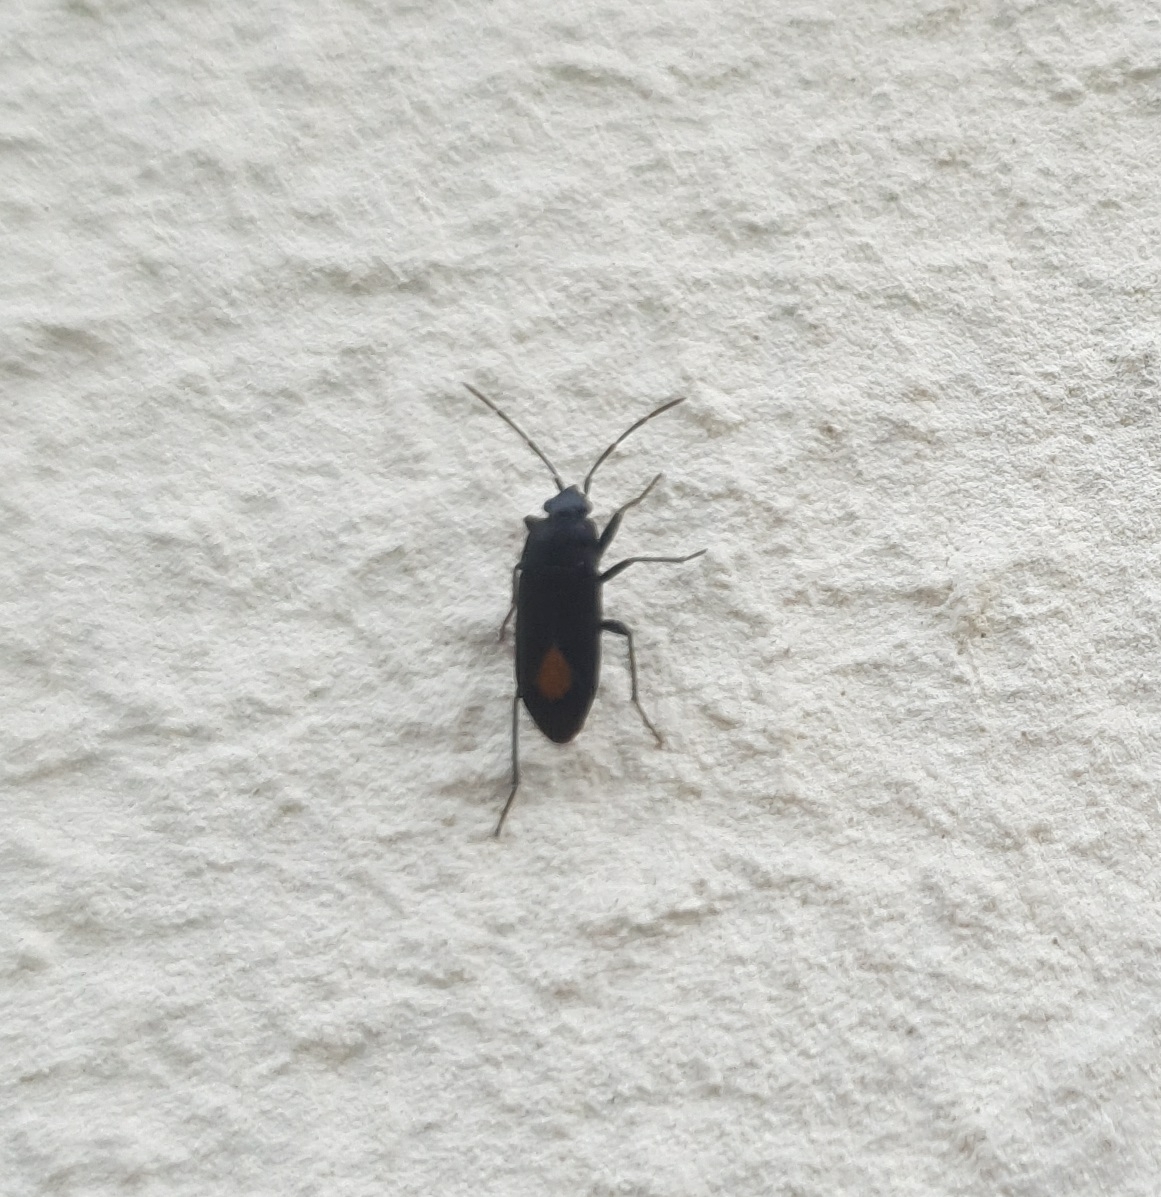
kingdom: Animalia
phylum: Arthropoda
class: Insecta
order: Hemiptera
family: Rhyparochromidae
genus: Aphanus
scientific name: Aphanus rolandri
